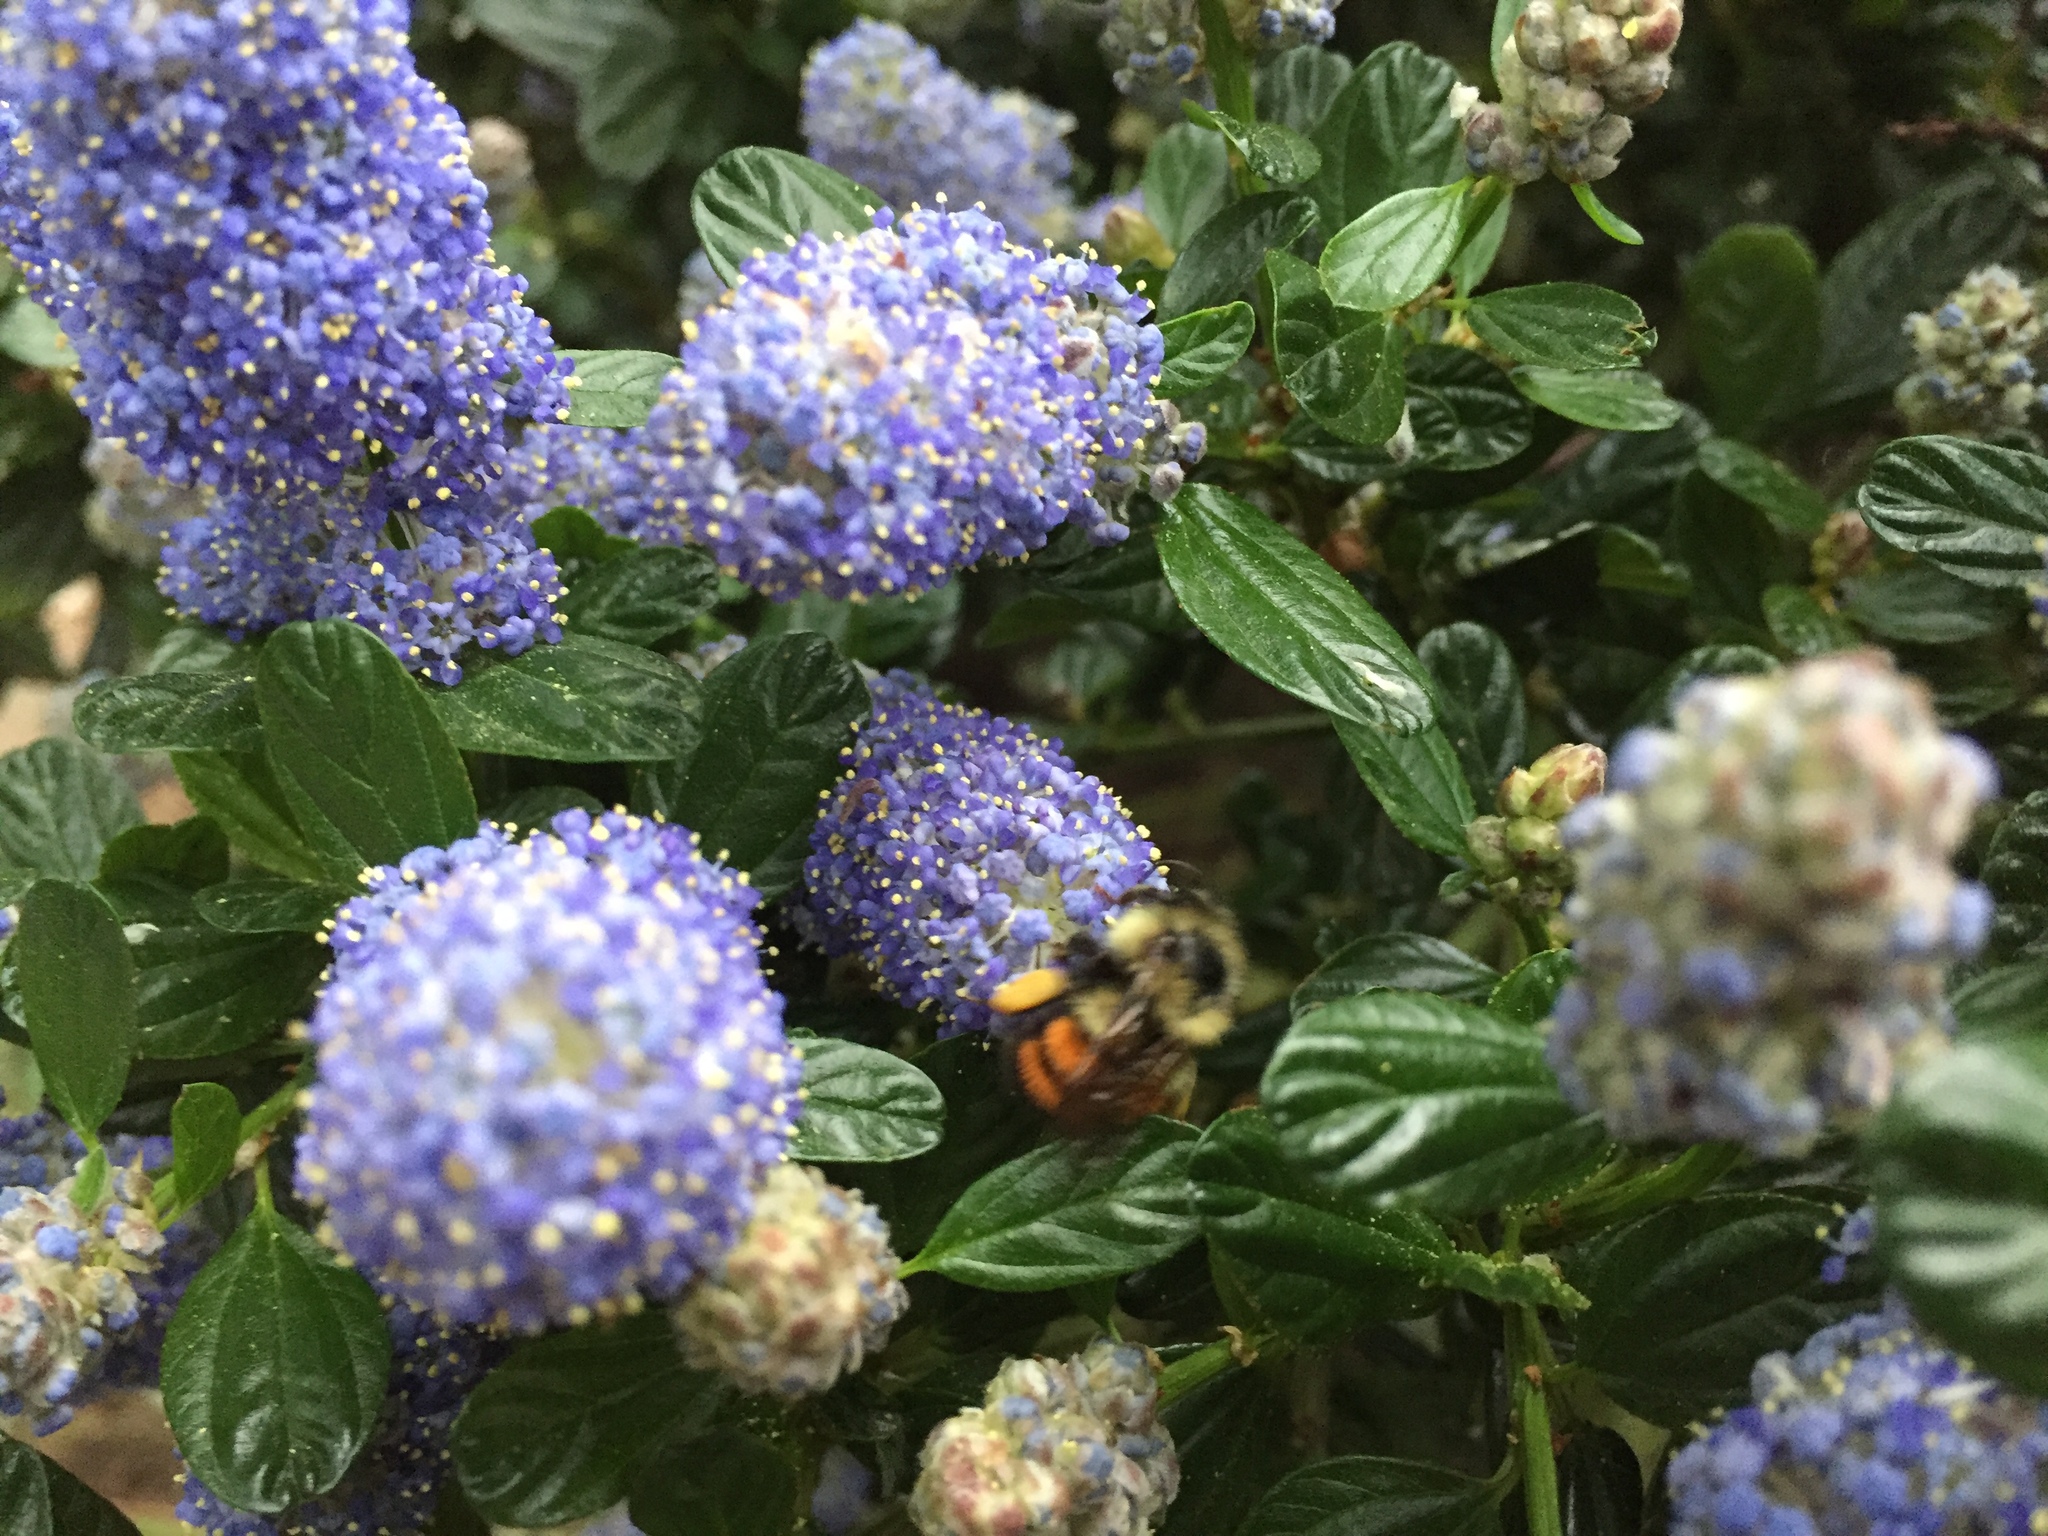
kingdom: Animalia
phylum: Arthropoda
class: Insecta
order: Hymenoptera
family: Apidae
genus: Bombus
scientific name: Bombus melanopygus
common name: Black tail bumble bee
